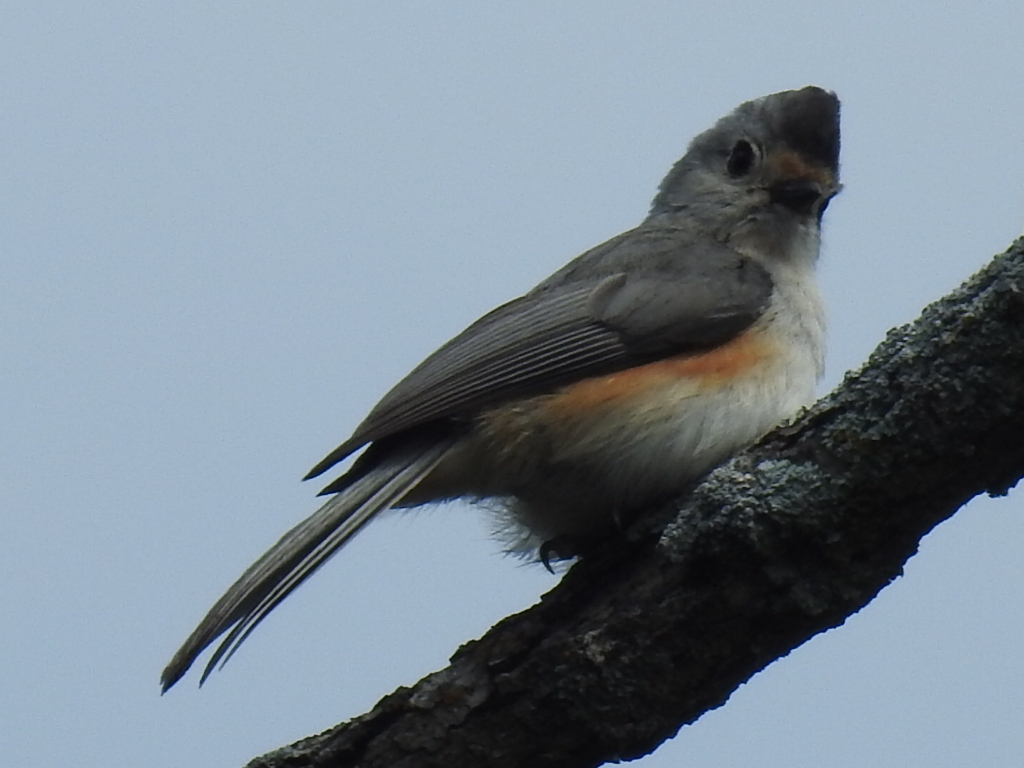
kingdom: Animalia
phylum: Chordata
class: Aves
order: Passeriformes
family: Paridae
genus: Baeolophus
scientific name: Baeolophus
